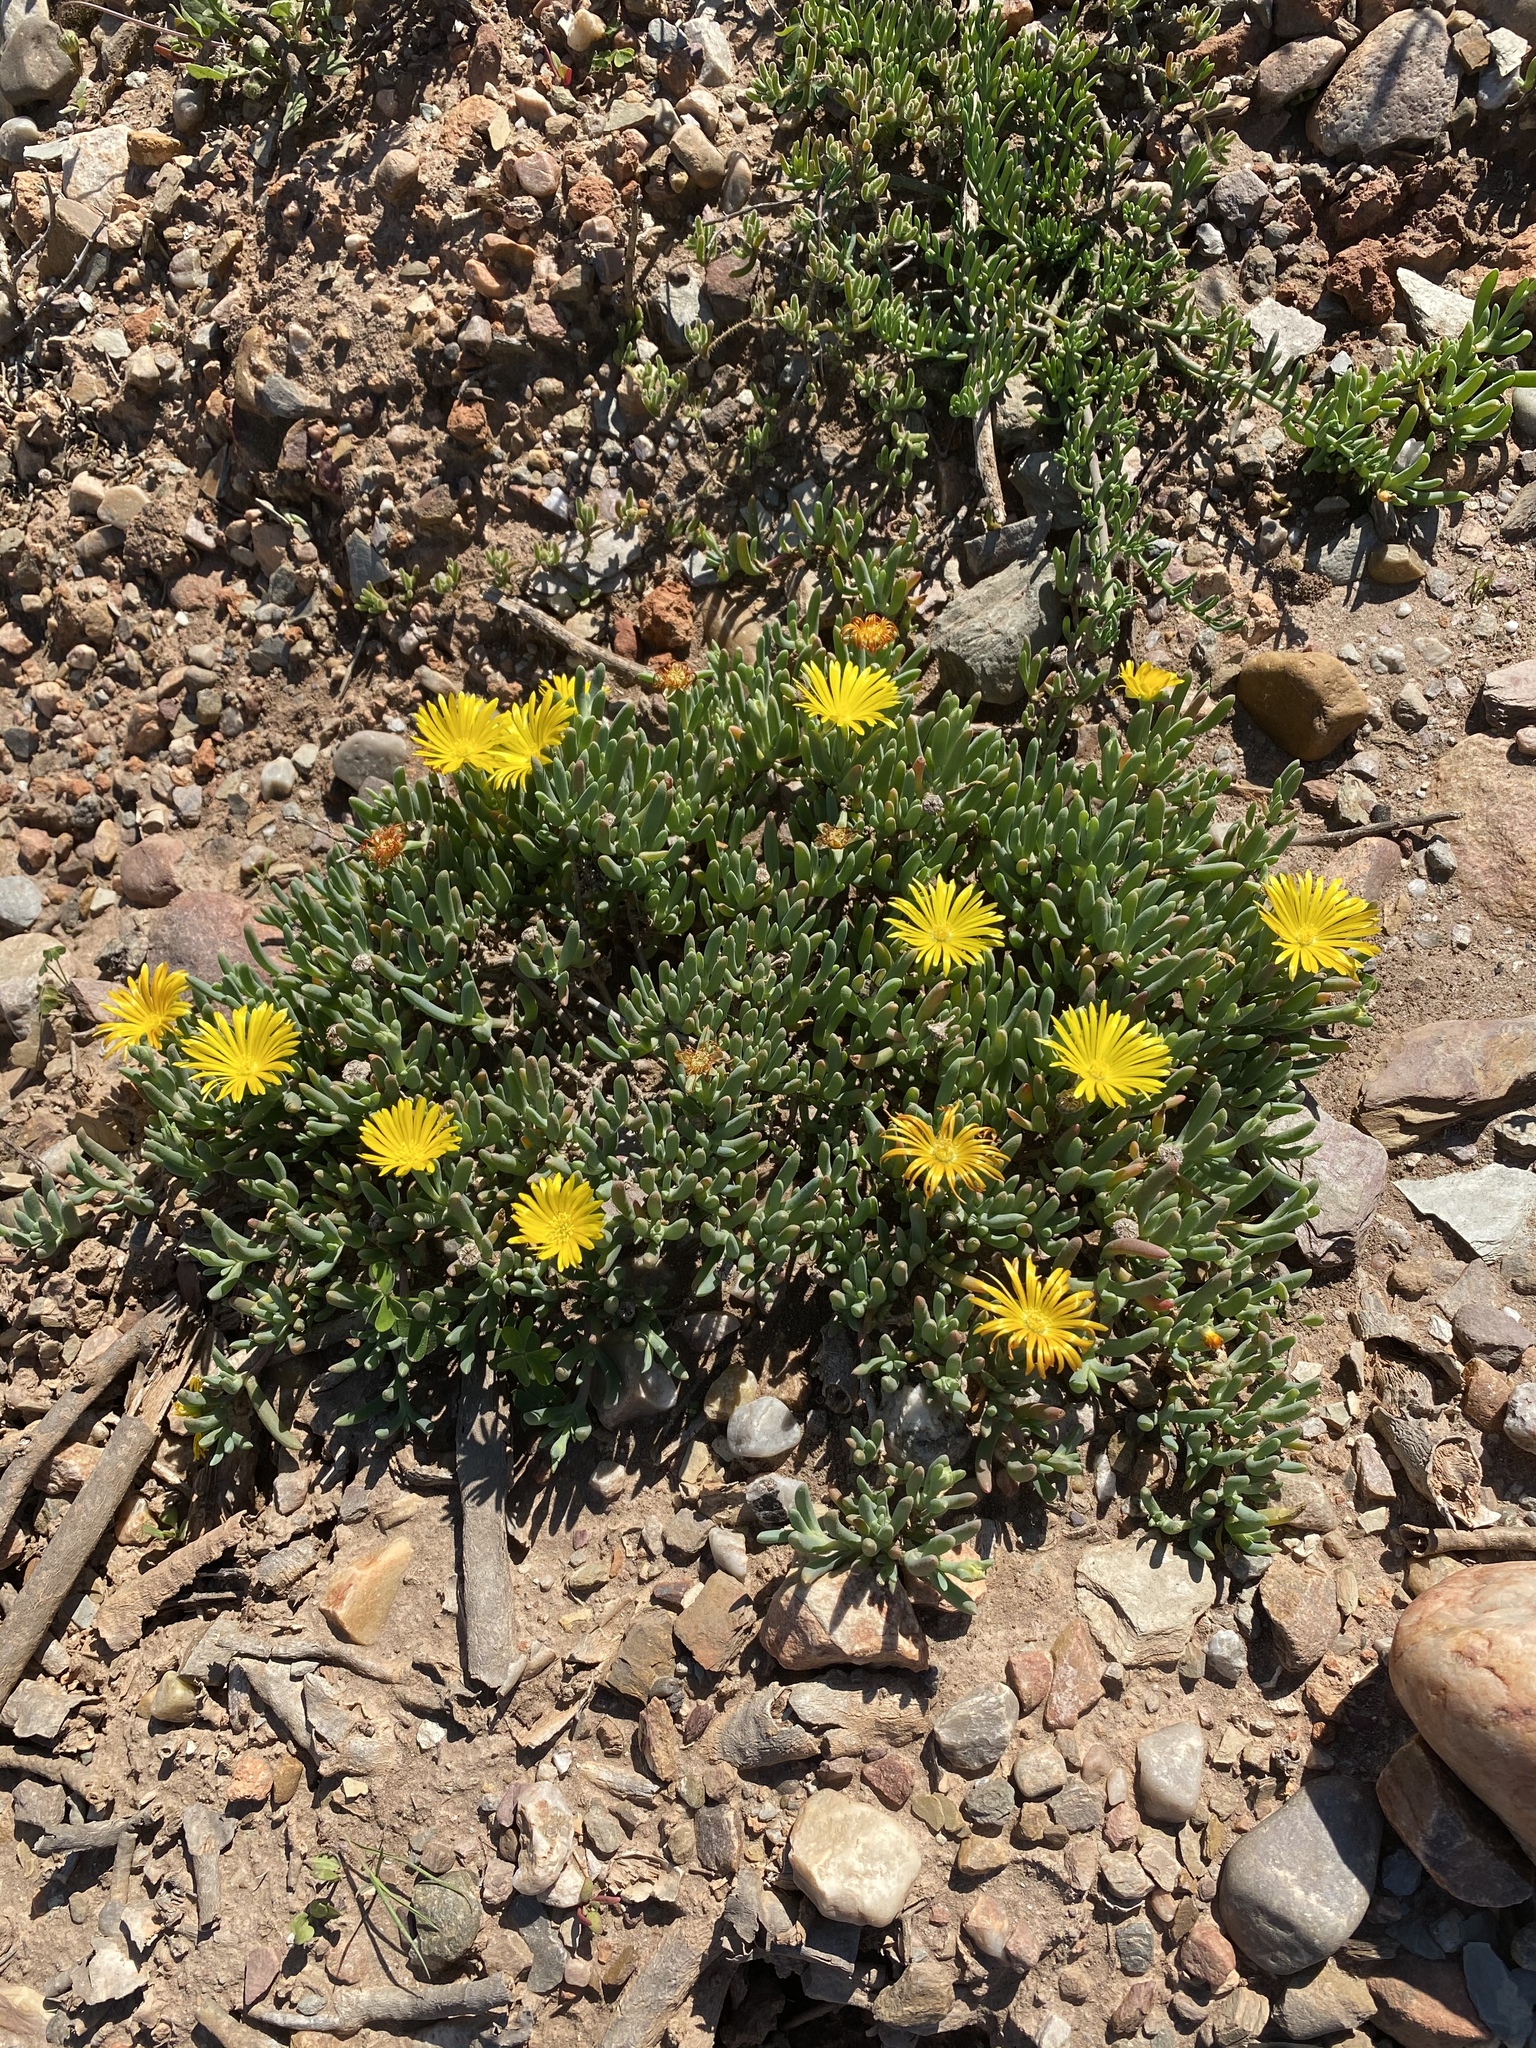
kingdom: Plantae
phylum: Tracheophyta
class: Magnoliopsida
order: Caryophyllales
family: Aizoaceae
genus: Malephora
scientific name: Malephora lutea
